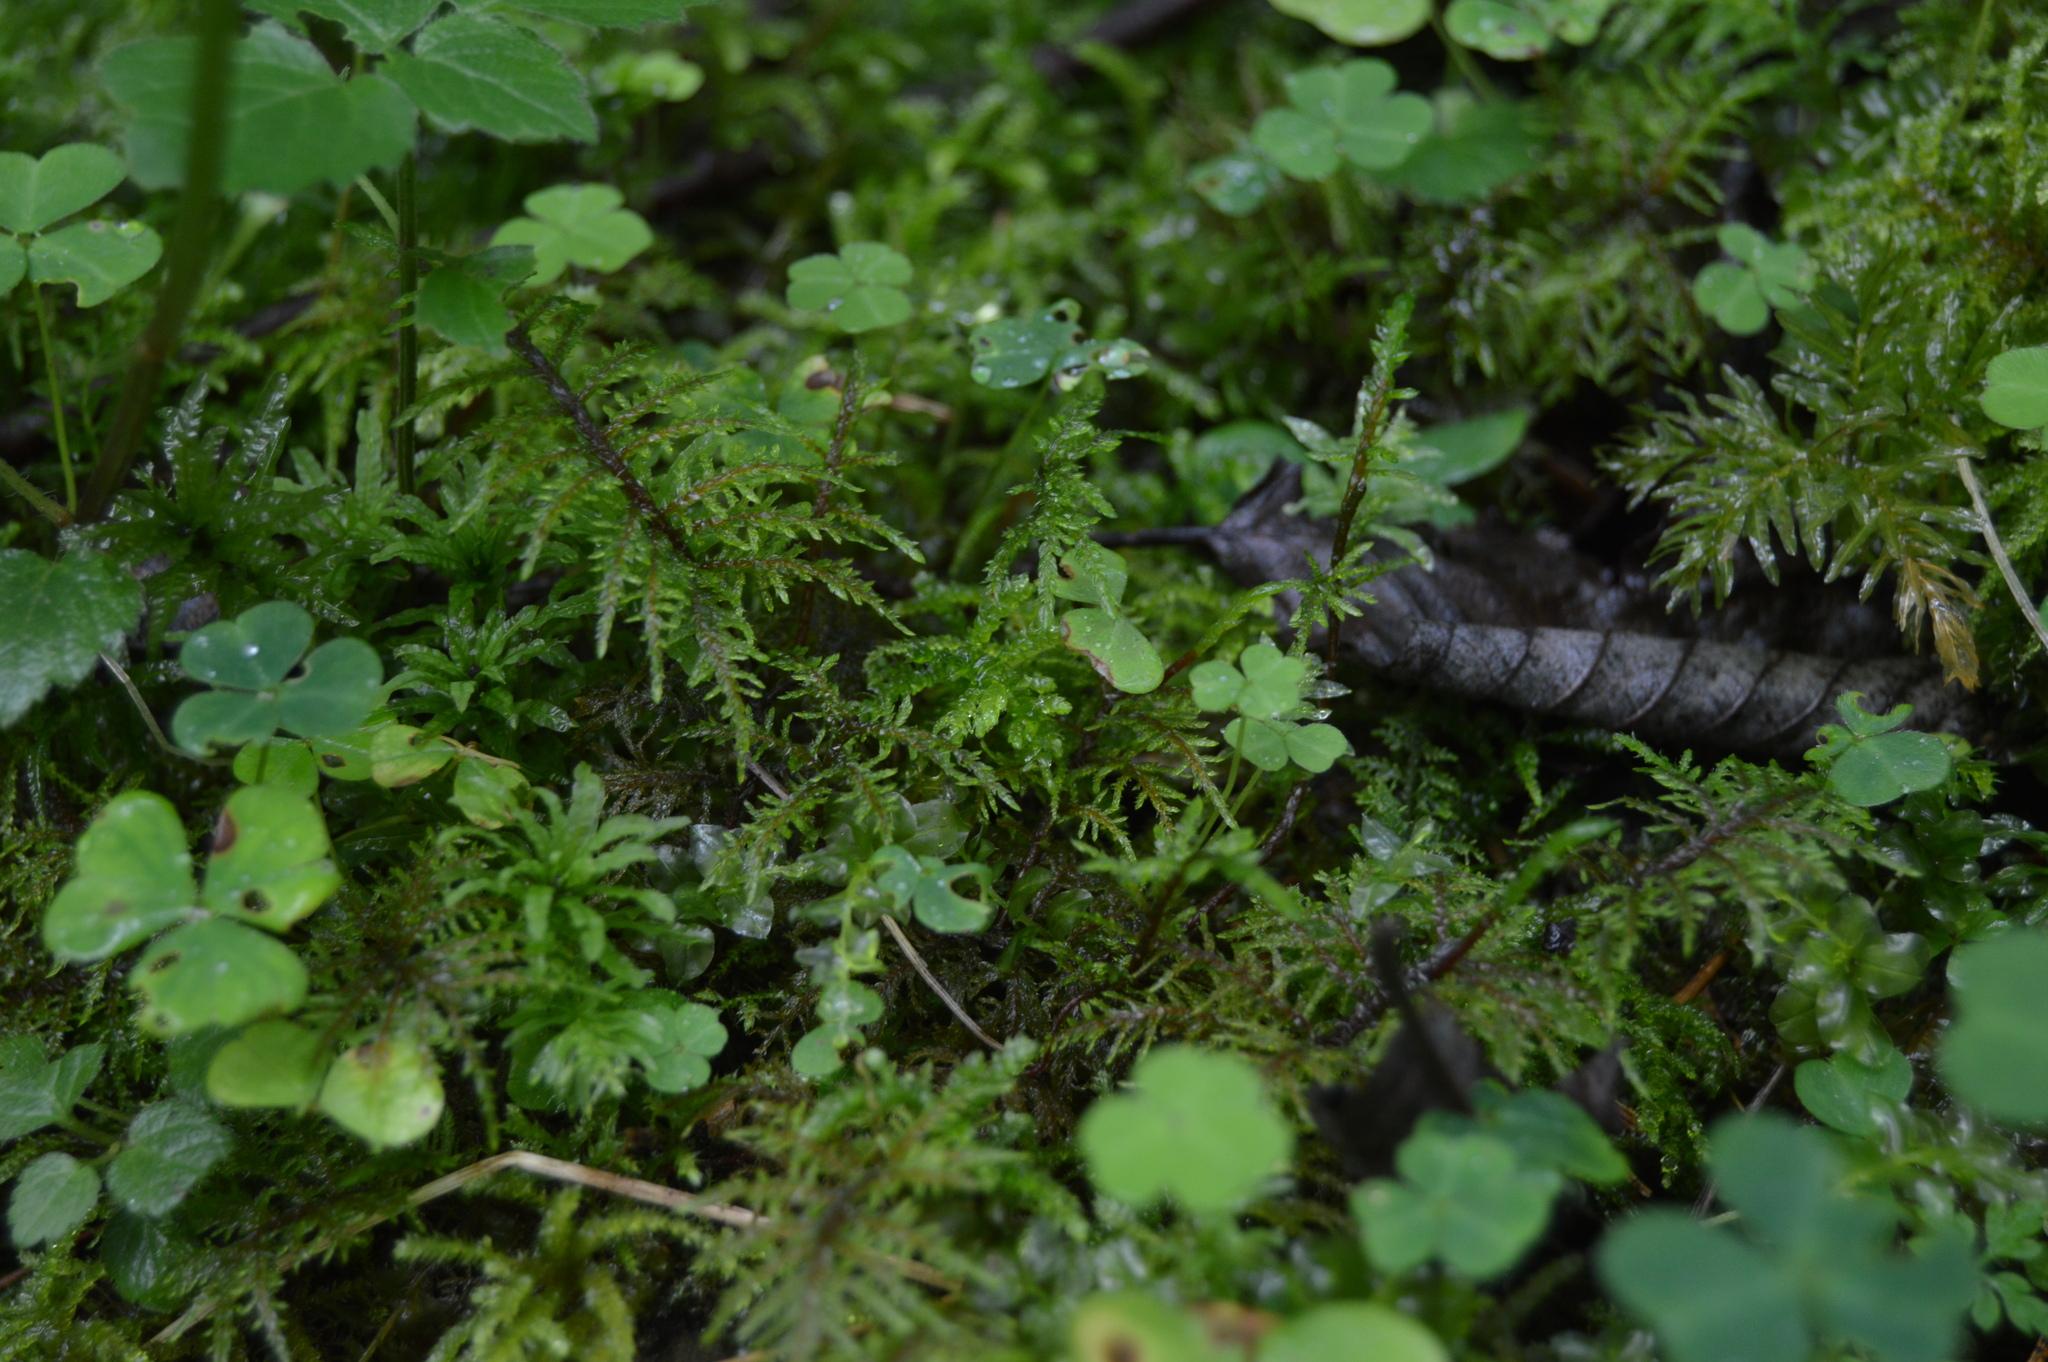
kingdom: Plantae
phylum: Bryophyta
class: Bryopsida
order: Hypnales
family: Hylocomiaceae
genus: Hylocomium
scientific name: Hylocomium splendens
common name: Stairstep moss
